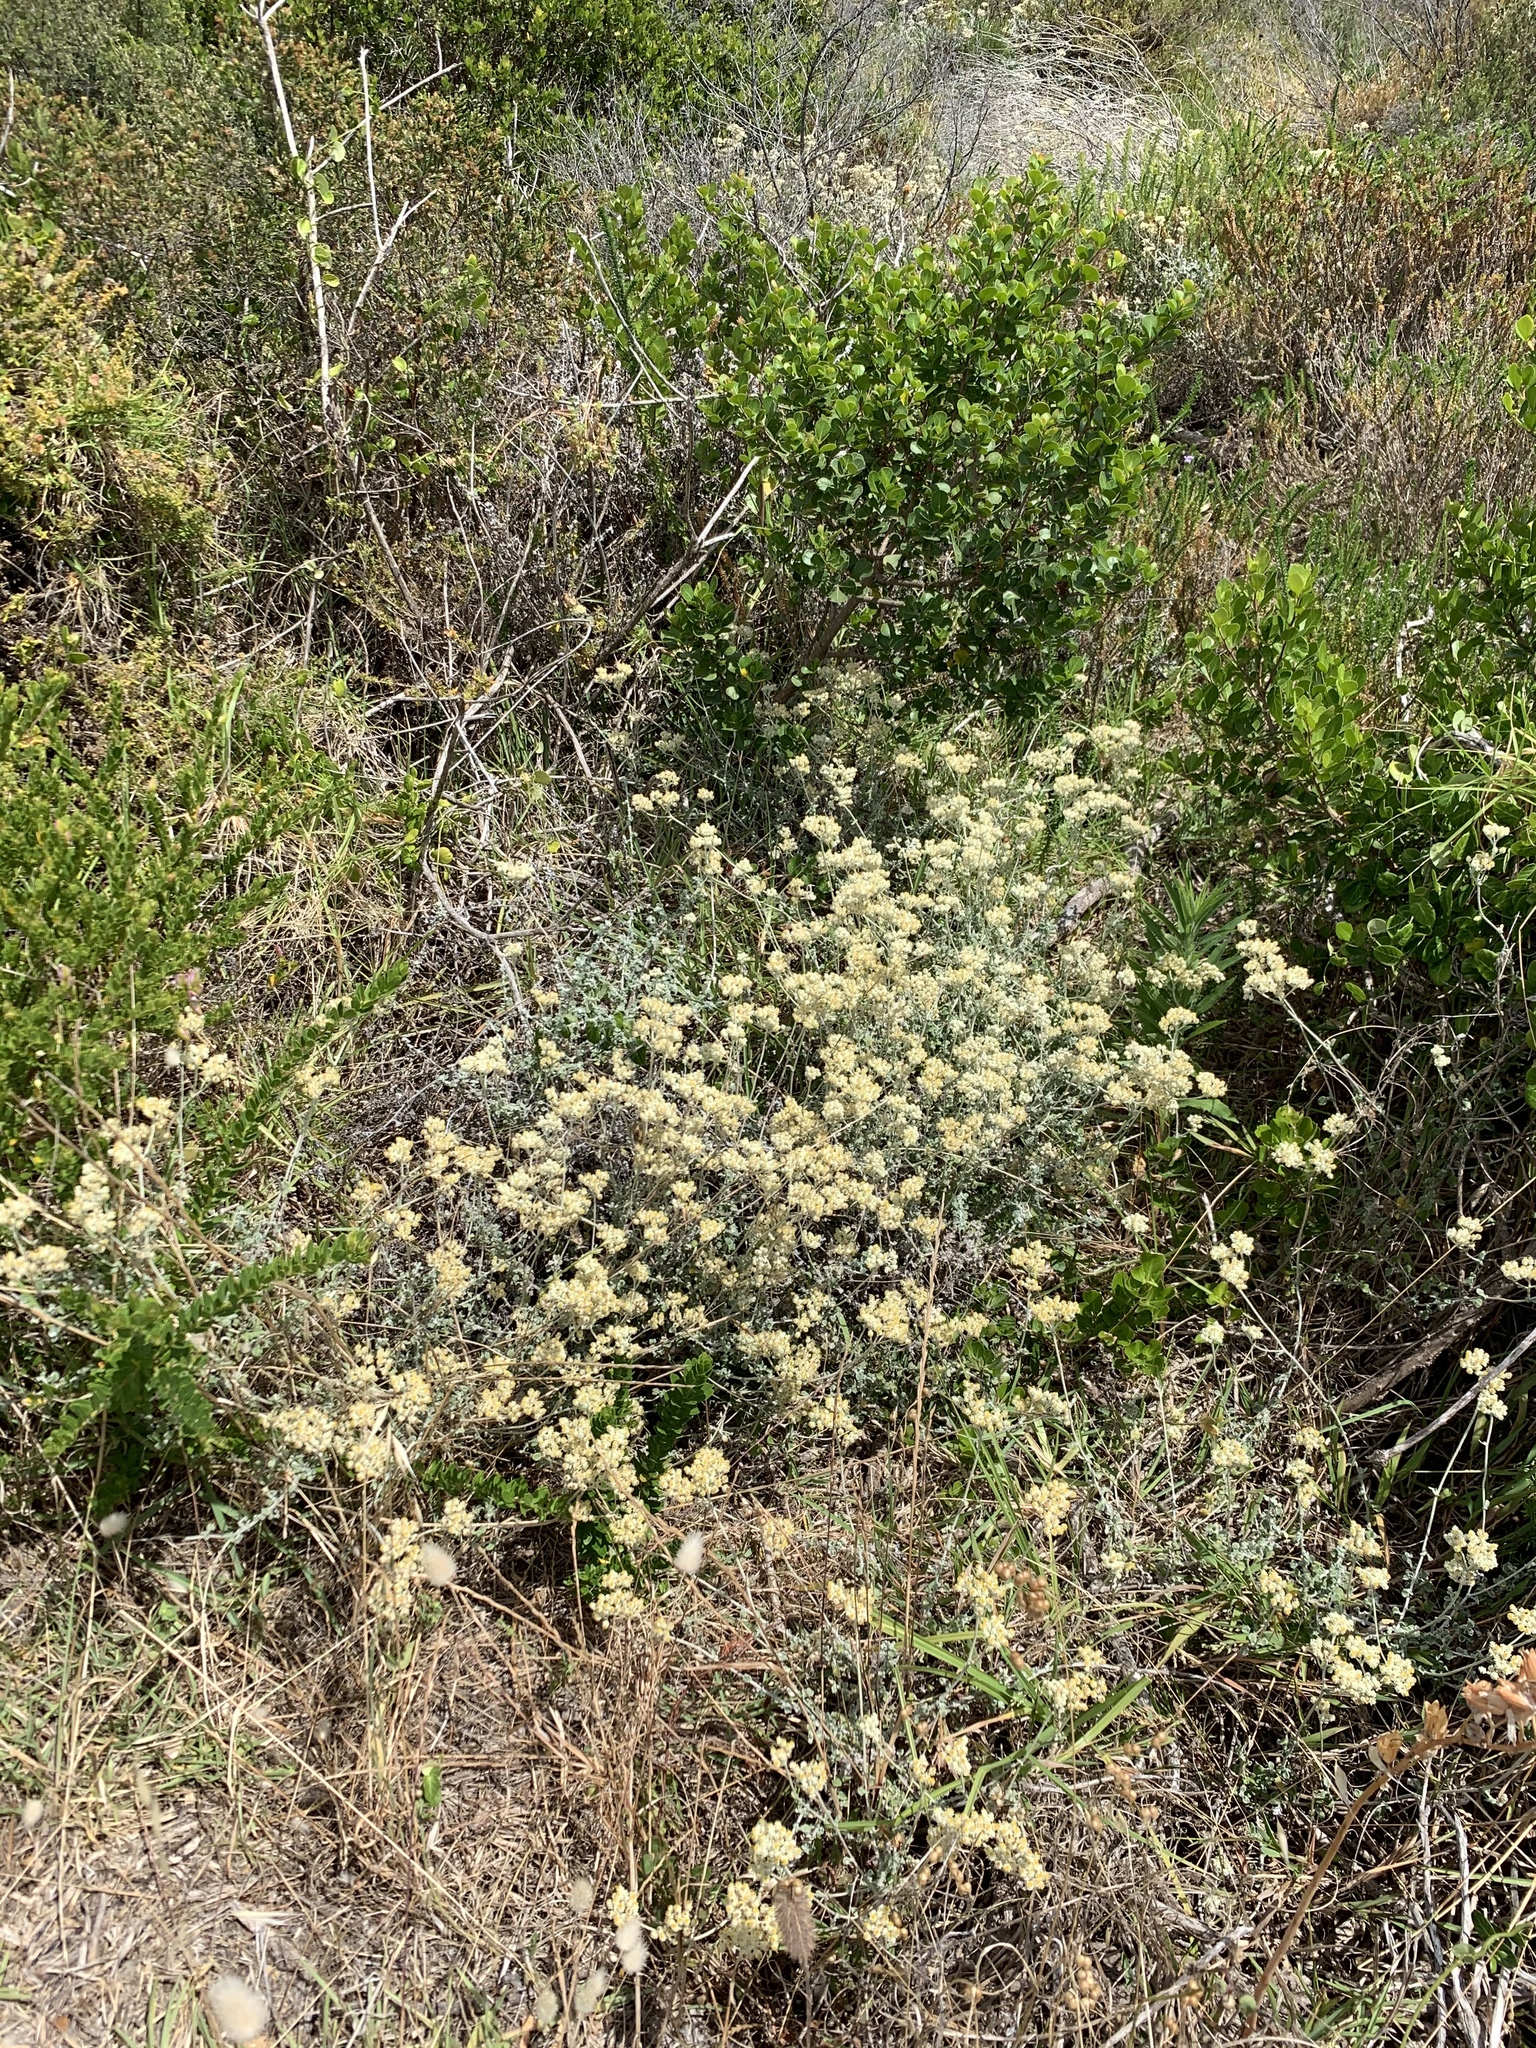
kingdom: Plantae
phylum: Tracheophyta
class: Magnoliopsida
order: Asterales
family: Asteraceae
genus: Helichrysum
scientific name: Helichrysum patulum
